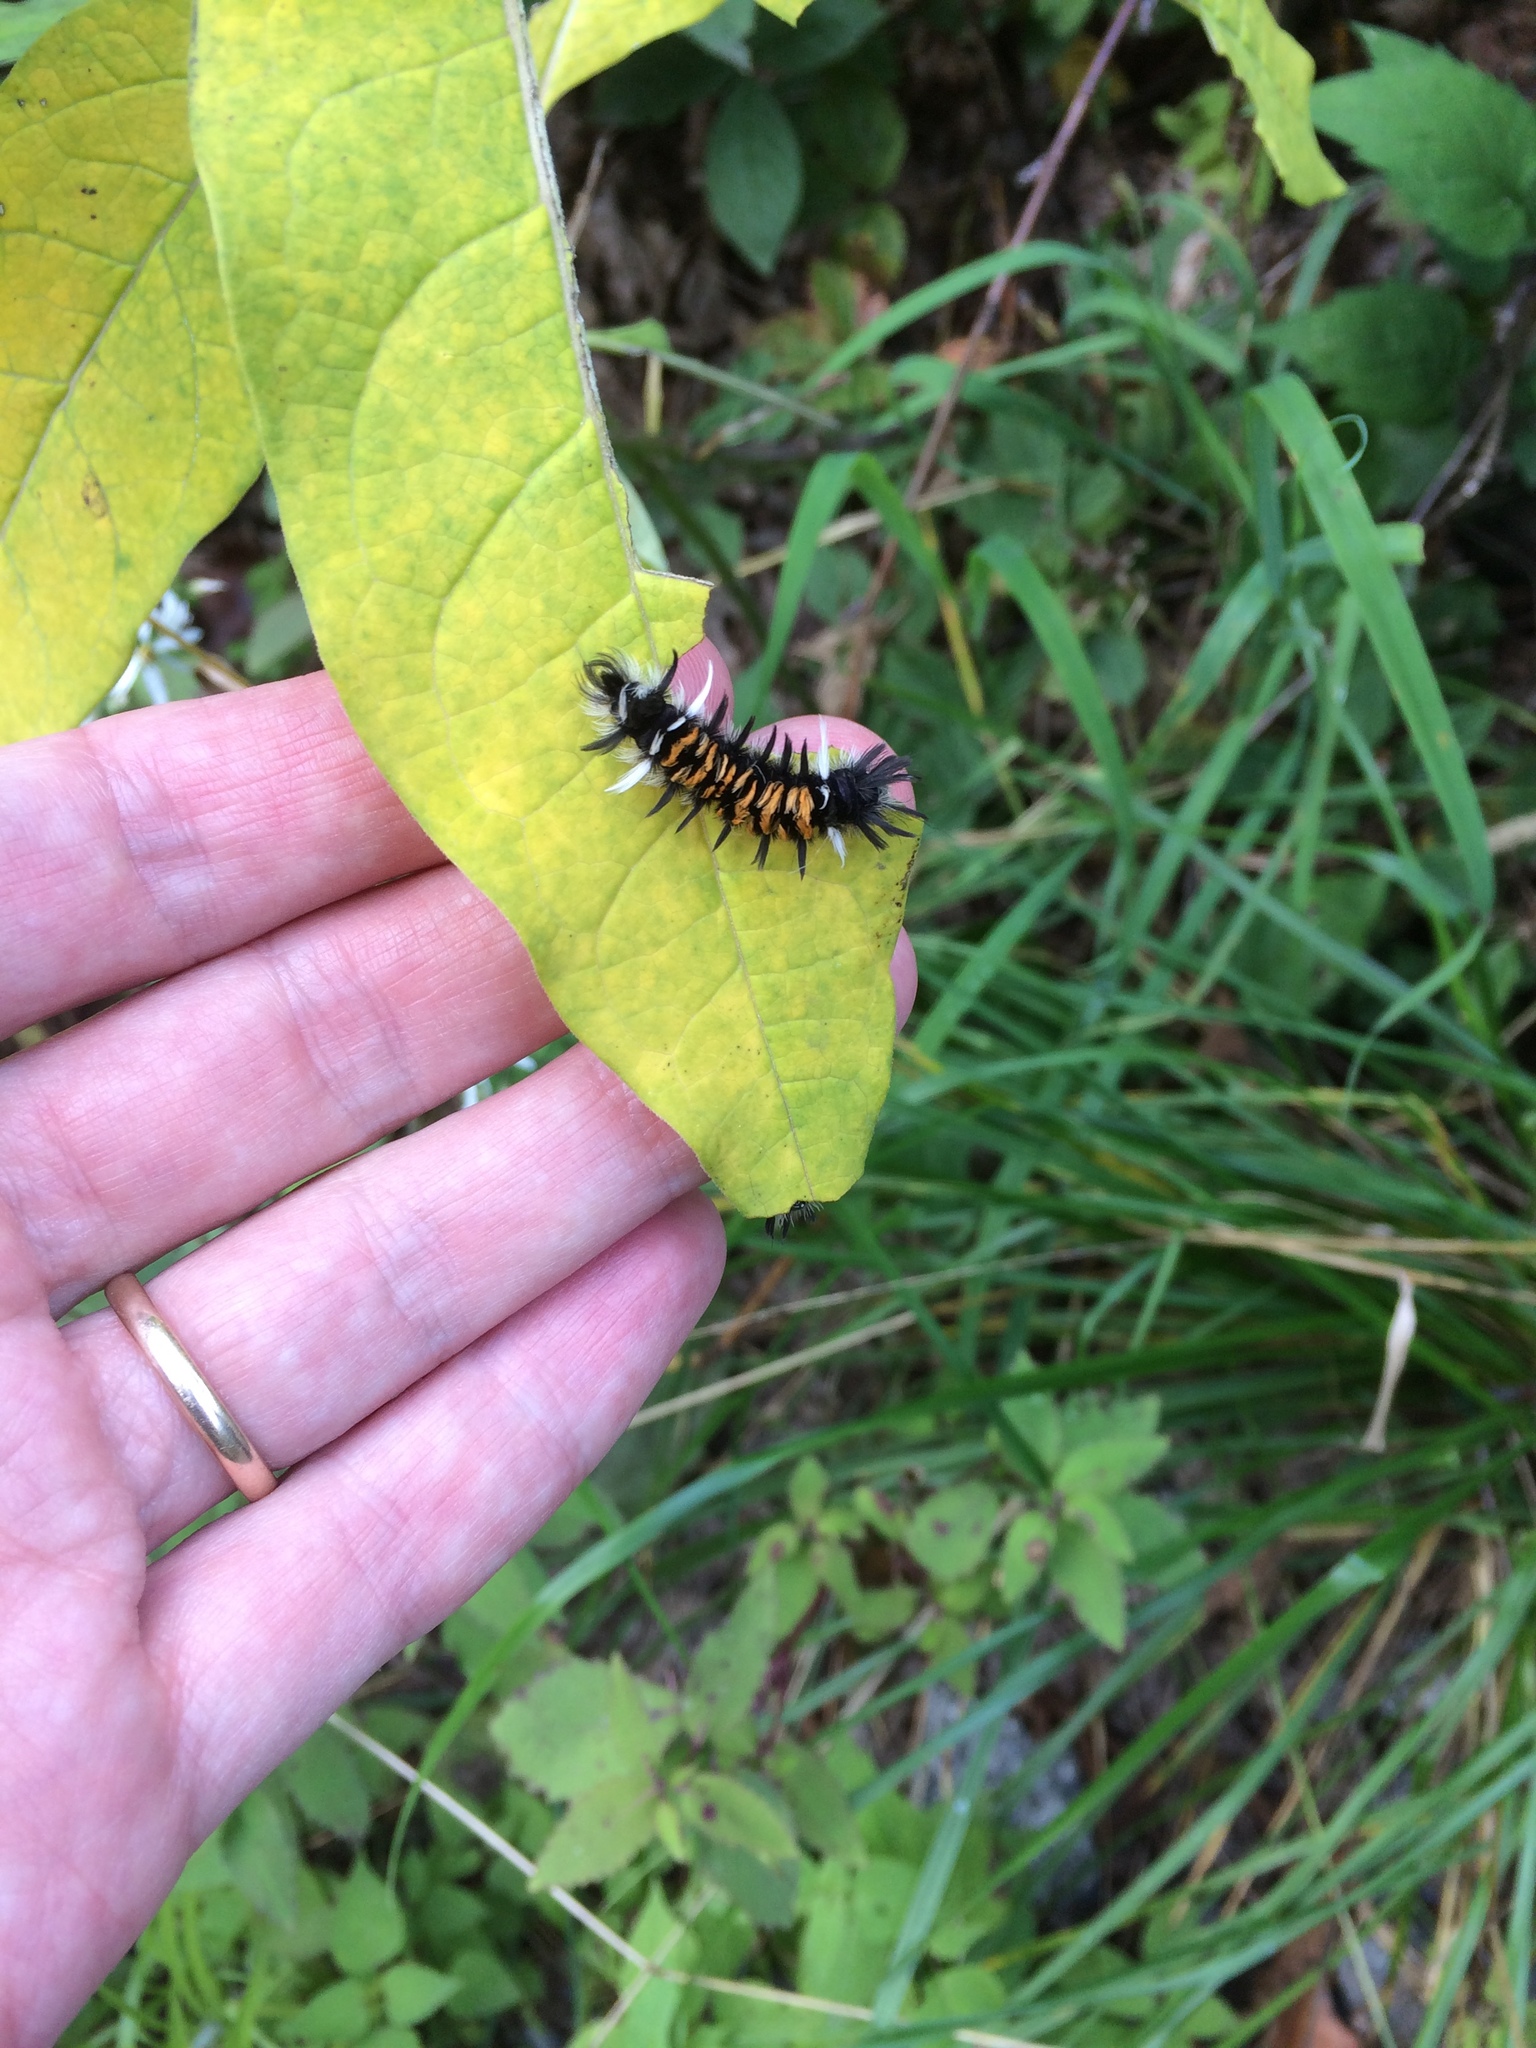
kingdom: Animalia
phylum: Arthropoda
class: Insecta
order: Lepidoptera
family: Erebidae
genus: Euchaetes
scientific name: Euchaetes egle
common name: Milkweed tussock moth
